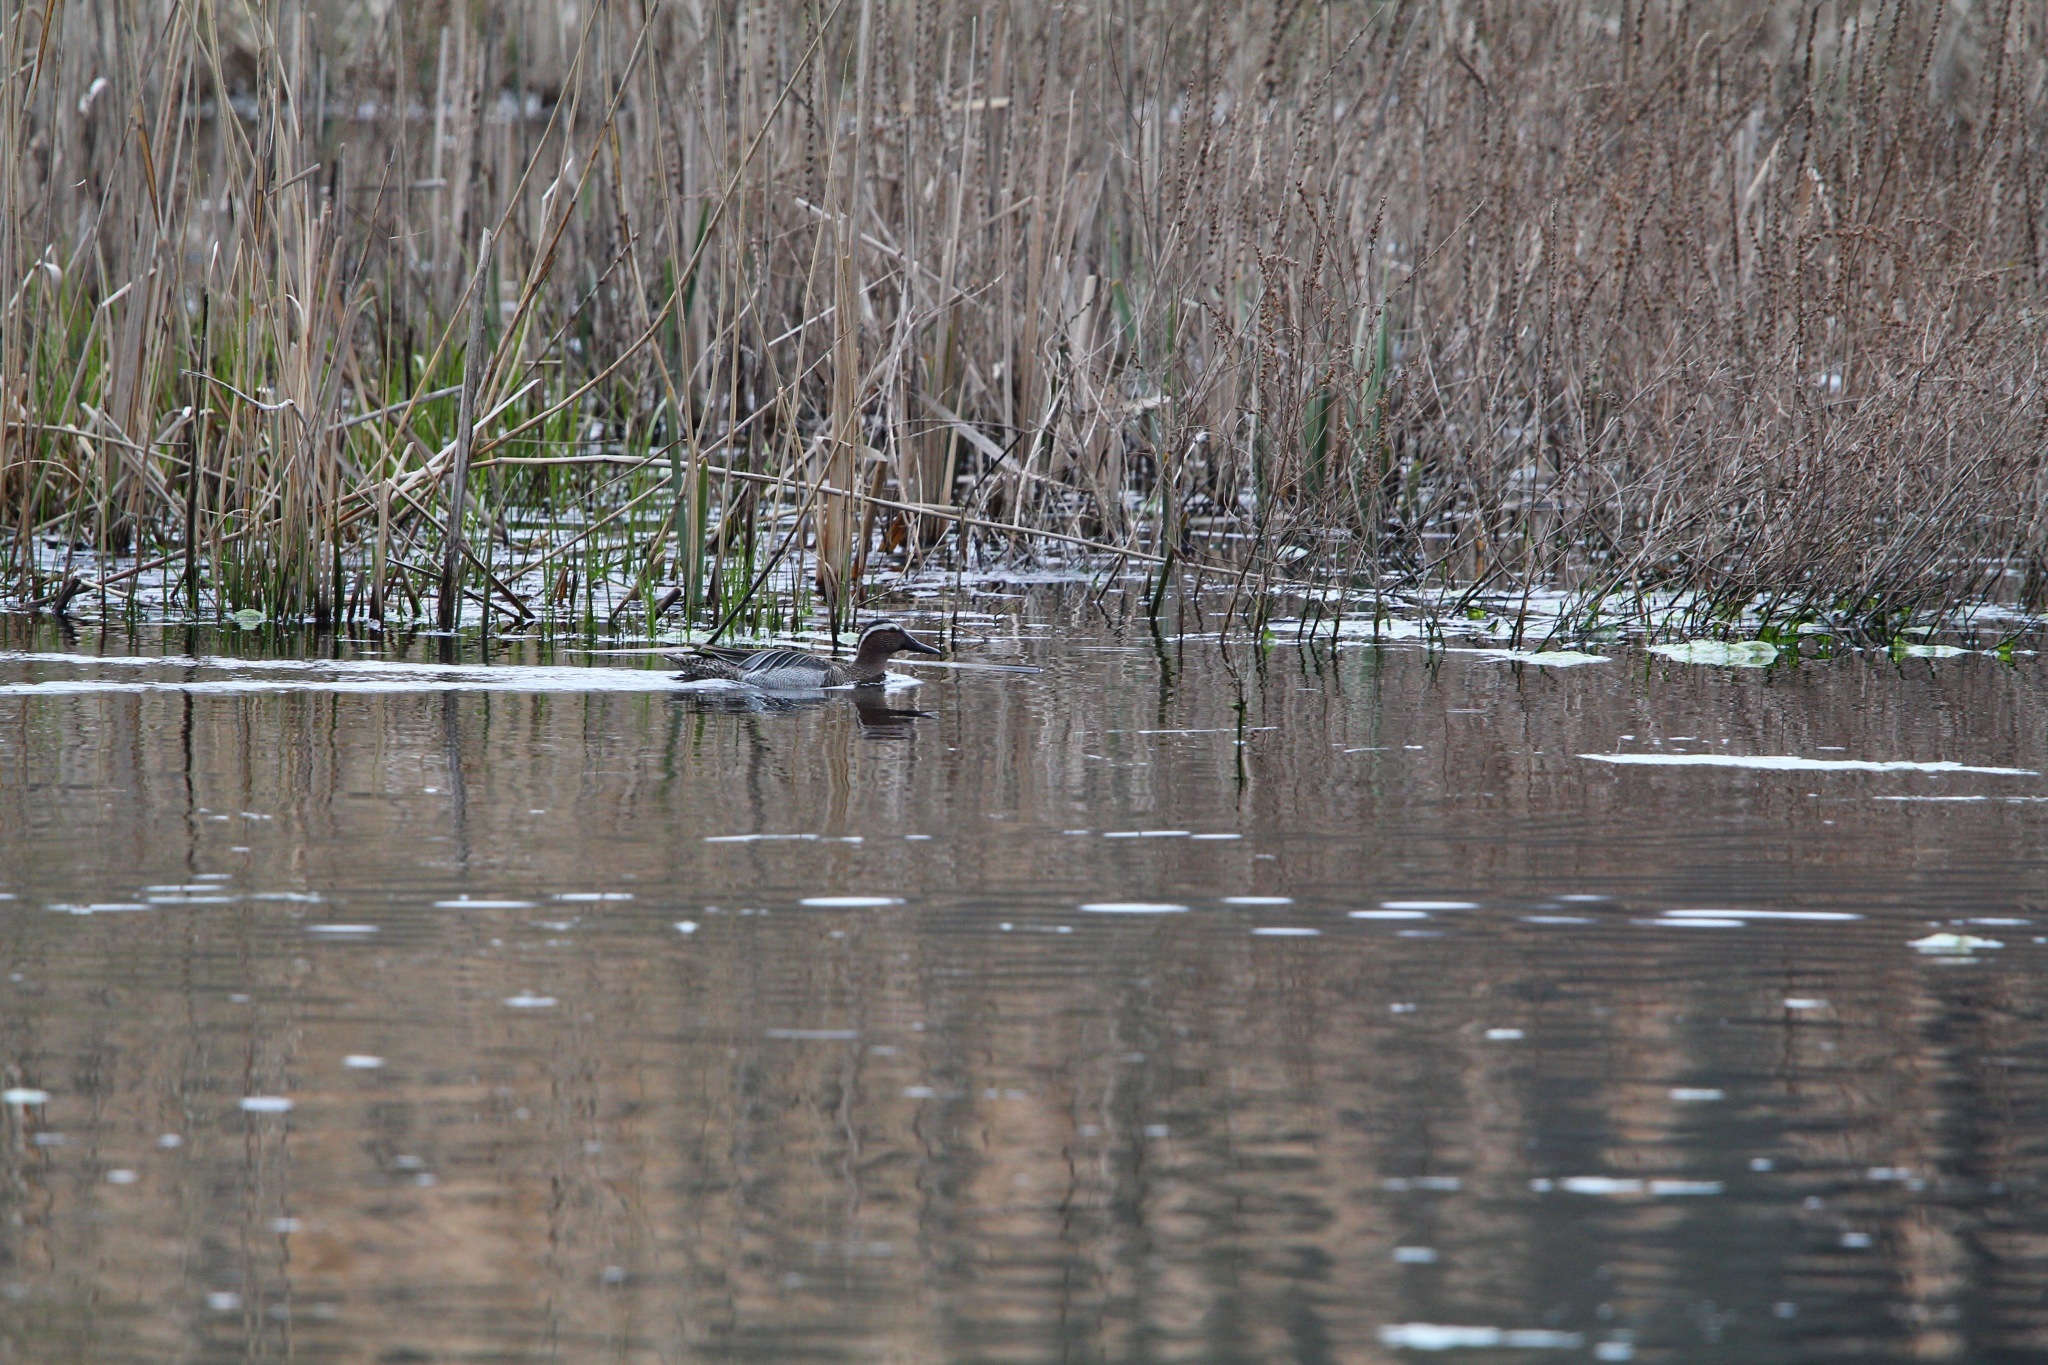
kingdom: Animalia
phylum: Chordata
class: Aves
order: Anseriformes
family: Anatidae
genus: Spatula
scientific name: Spatula querquedula
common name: Garganey
